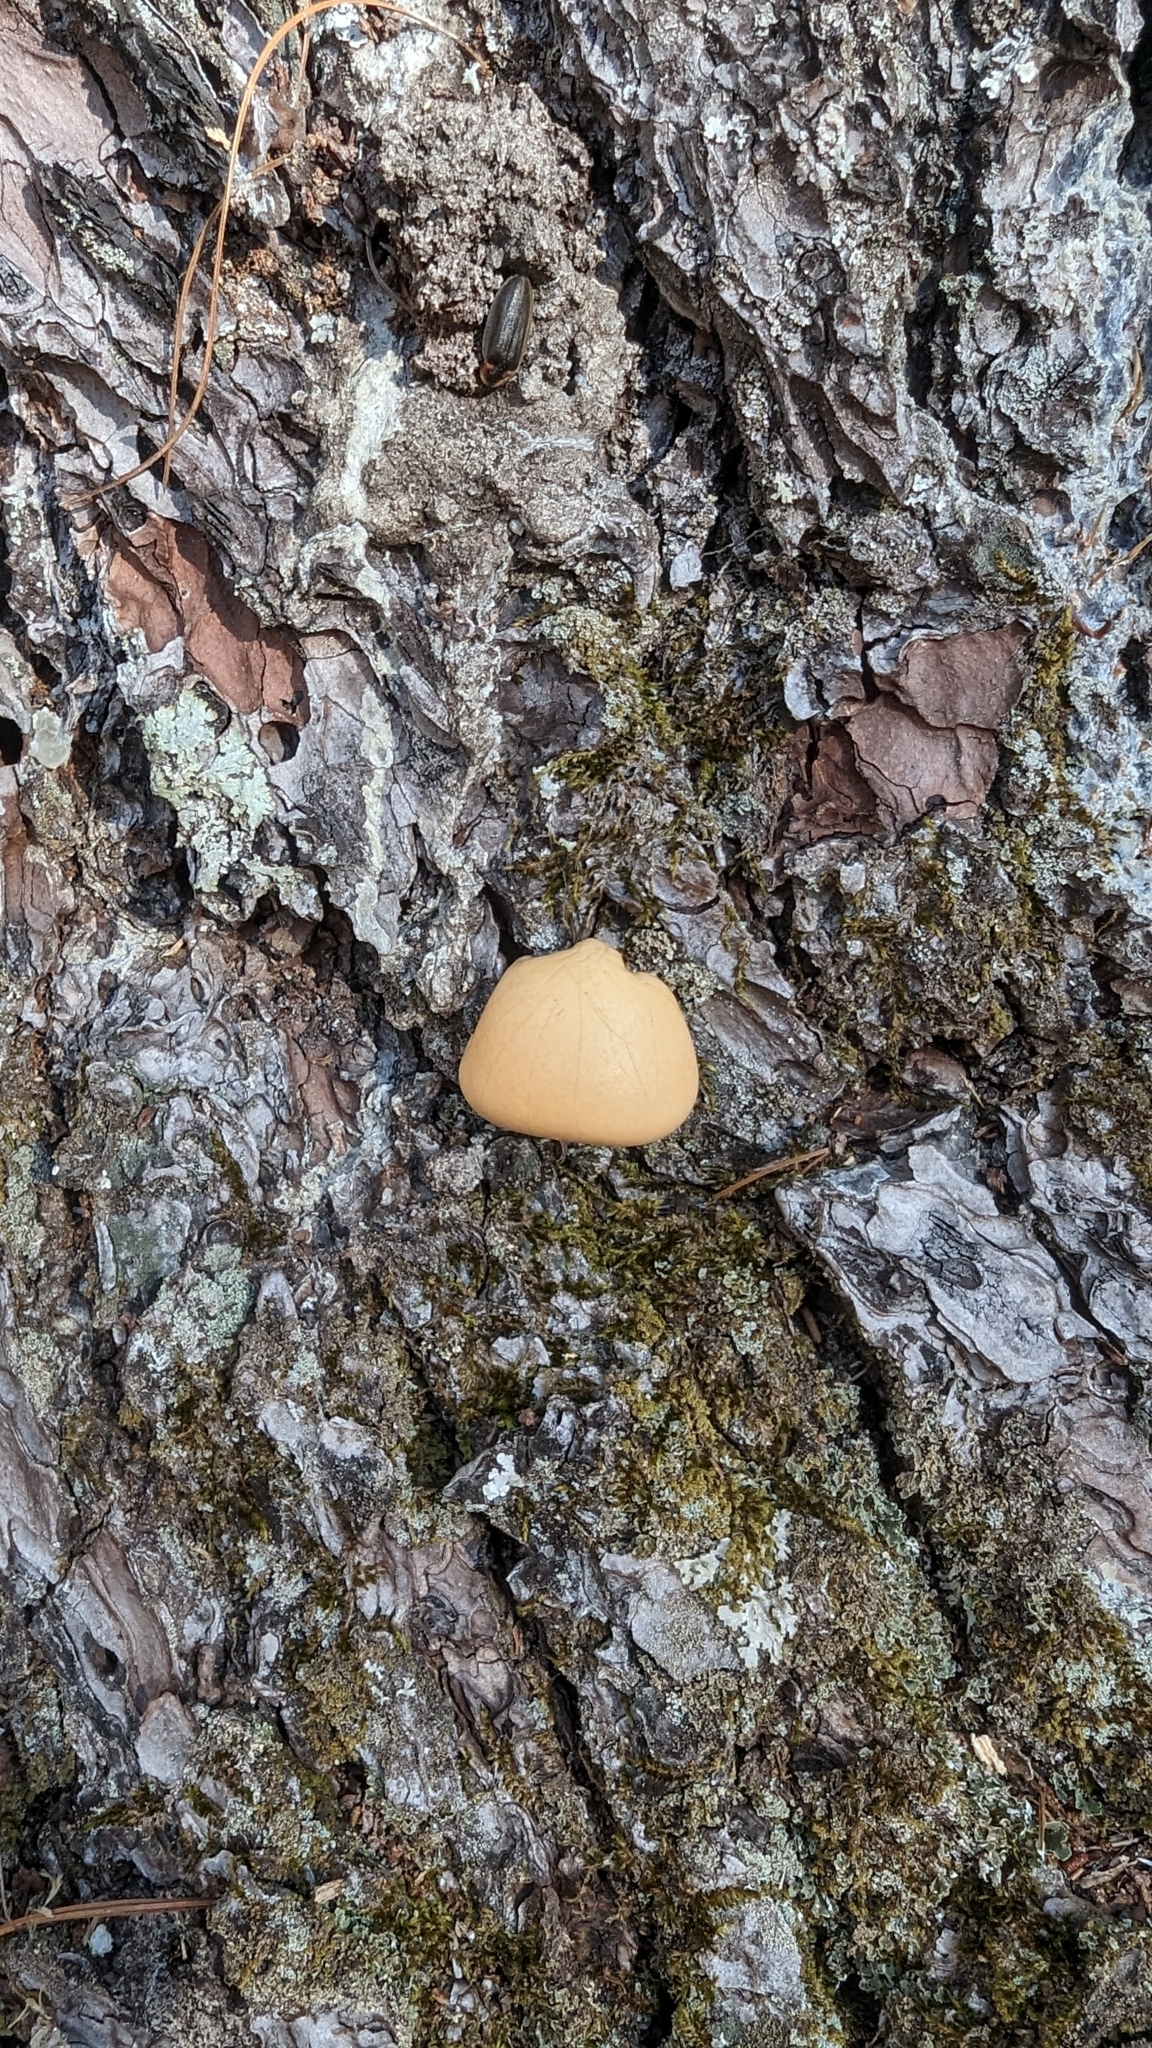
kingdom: Fungi
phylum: Basidiomycota
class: Agaricomycetes
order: Polyporales
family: Polyporaceae
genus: Cryptoporus
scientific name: Cryptoporus volvatus
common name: Veiled polypore
